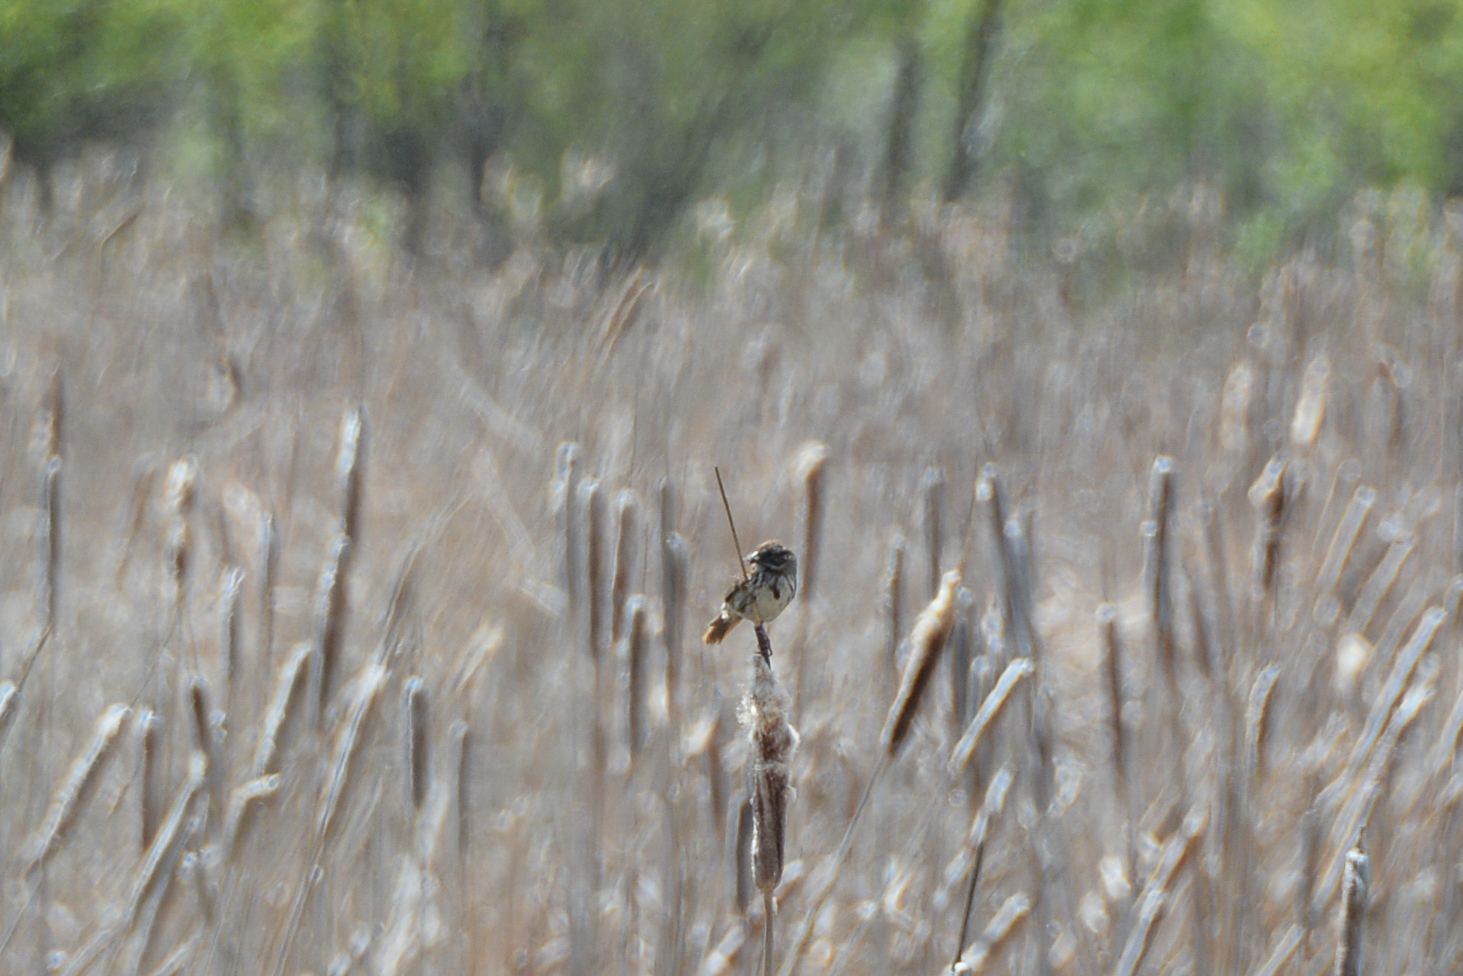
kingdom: Animalia
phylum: Chordata
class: Aves
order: Passeriformes
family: Passerellidae
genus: Melospiza
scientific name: Melospiza melodia
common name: Song sparrow
